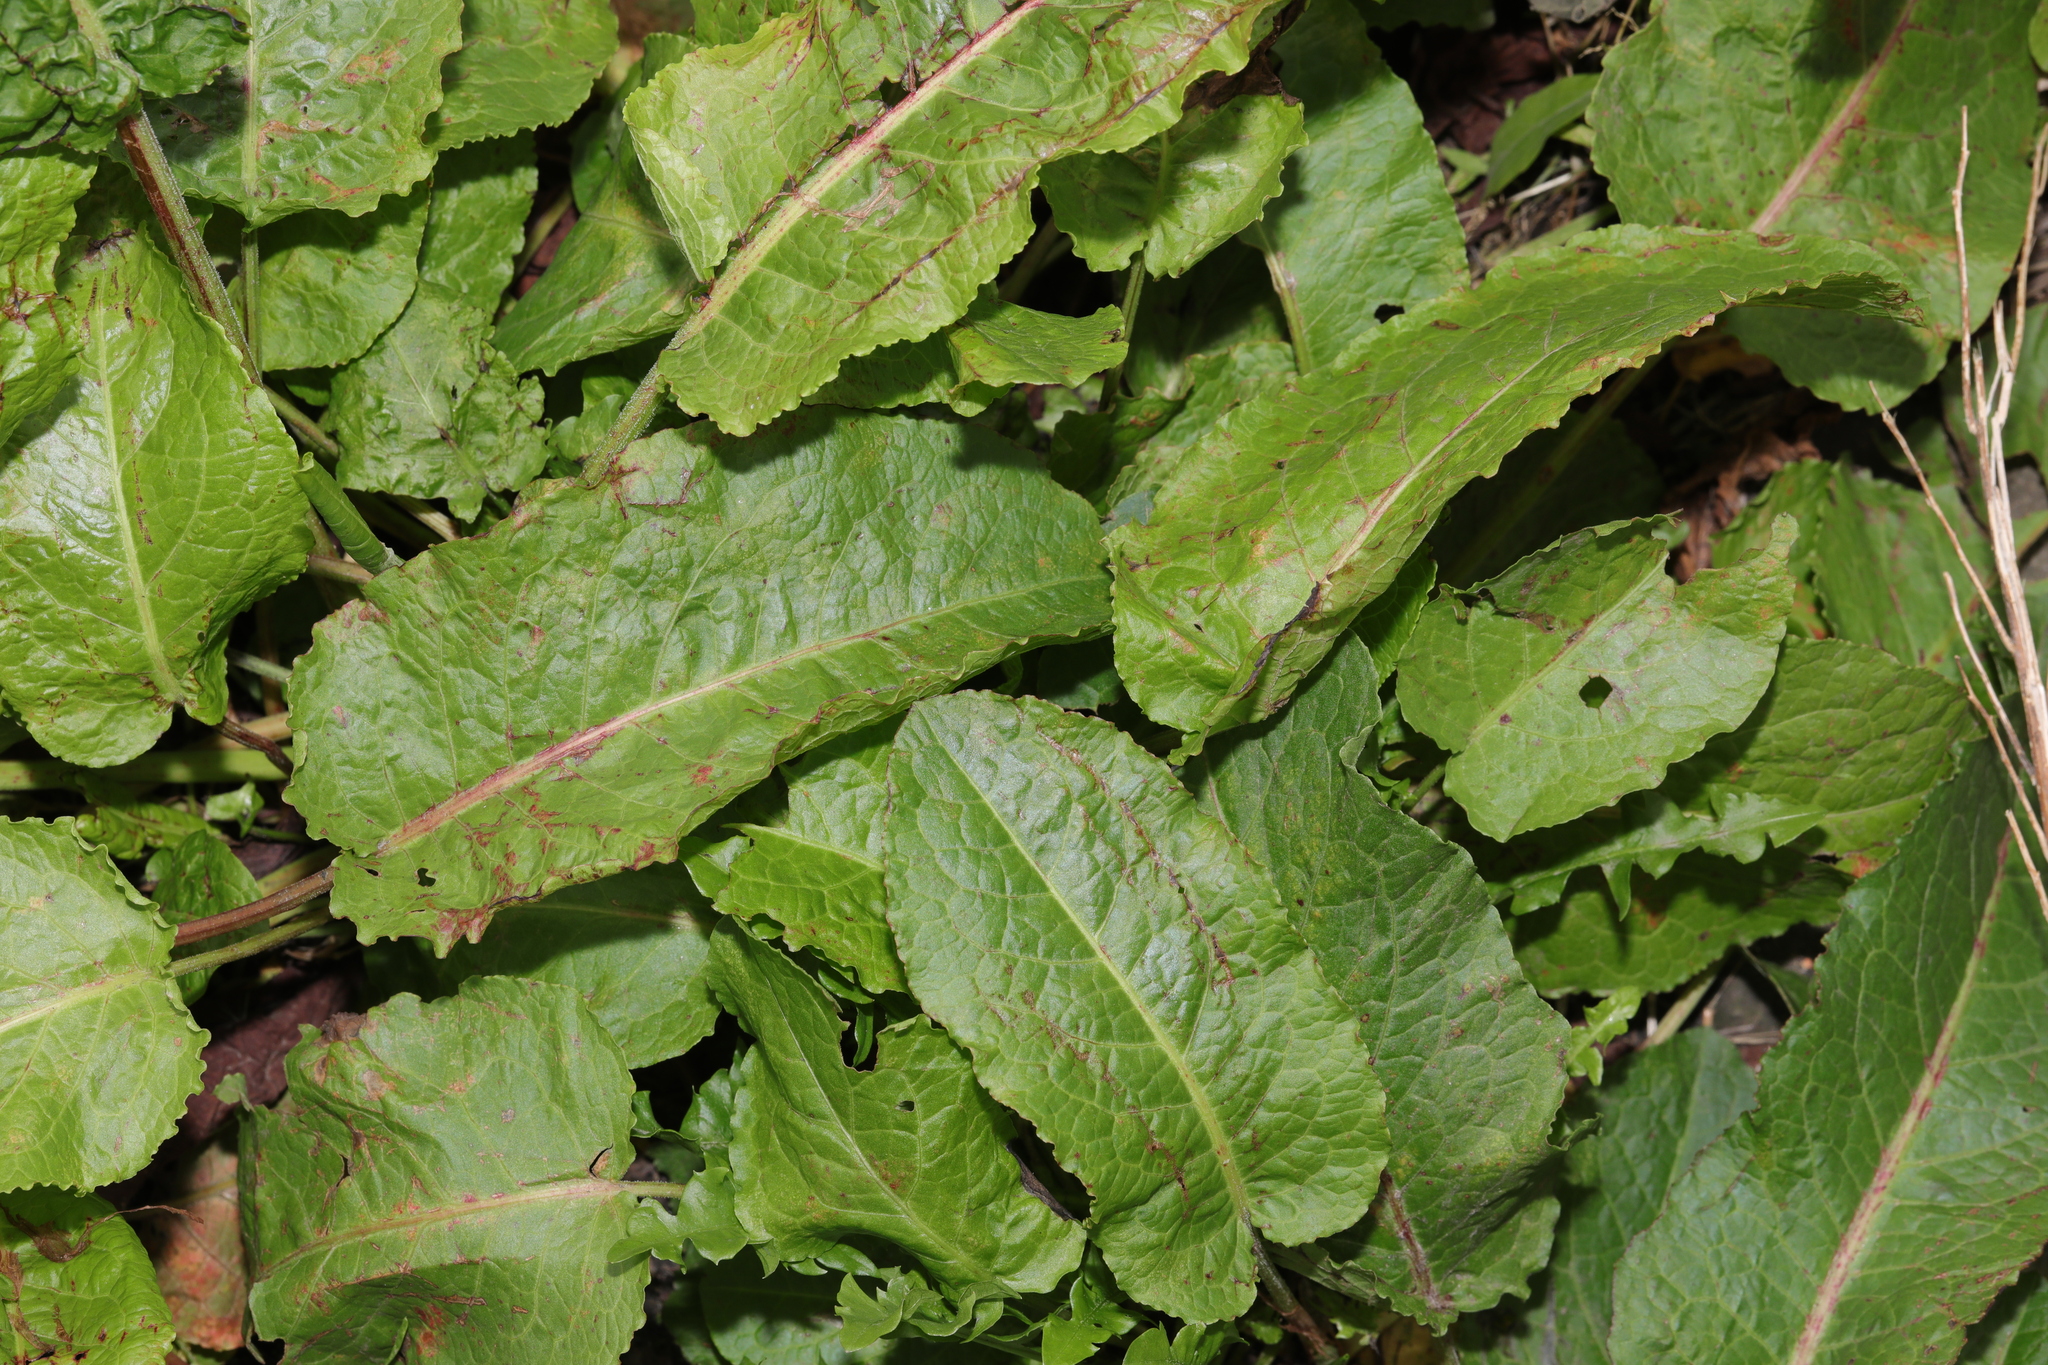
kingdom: Plantae
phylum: Tracheophyta
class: Magnoliopsida
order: Caryophyllales
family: Polygonaceae
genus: Rumex
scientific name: Rumex obtusifolius
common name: Bitter dock
